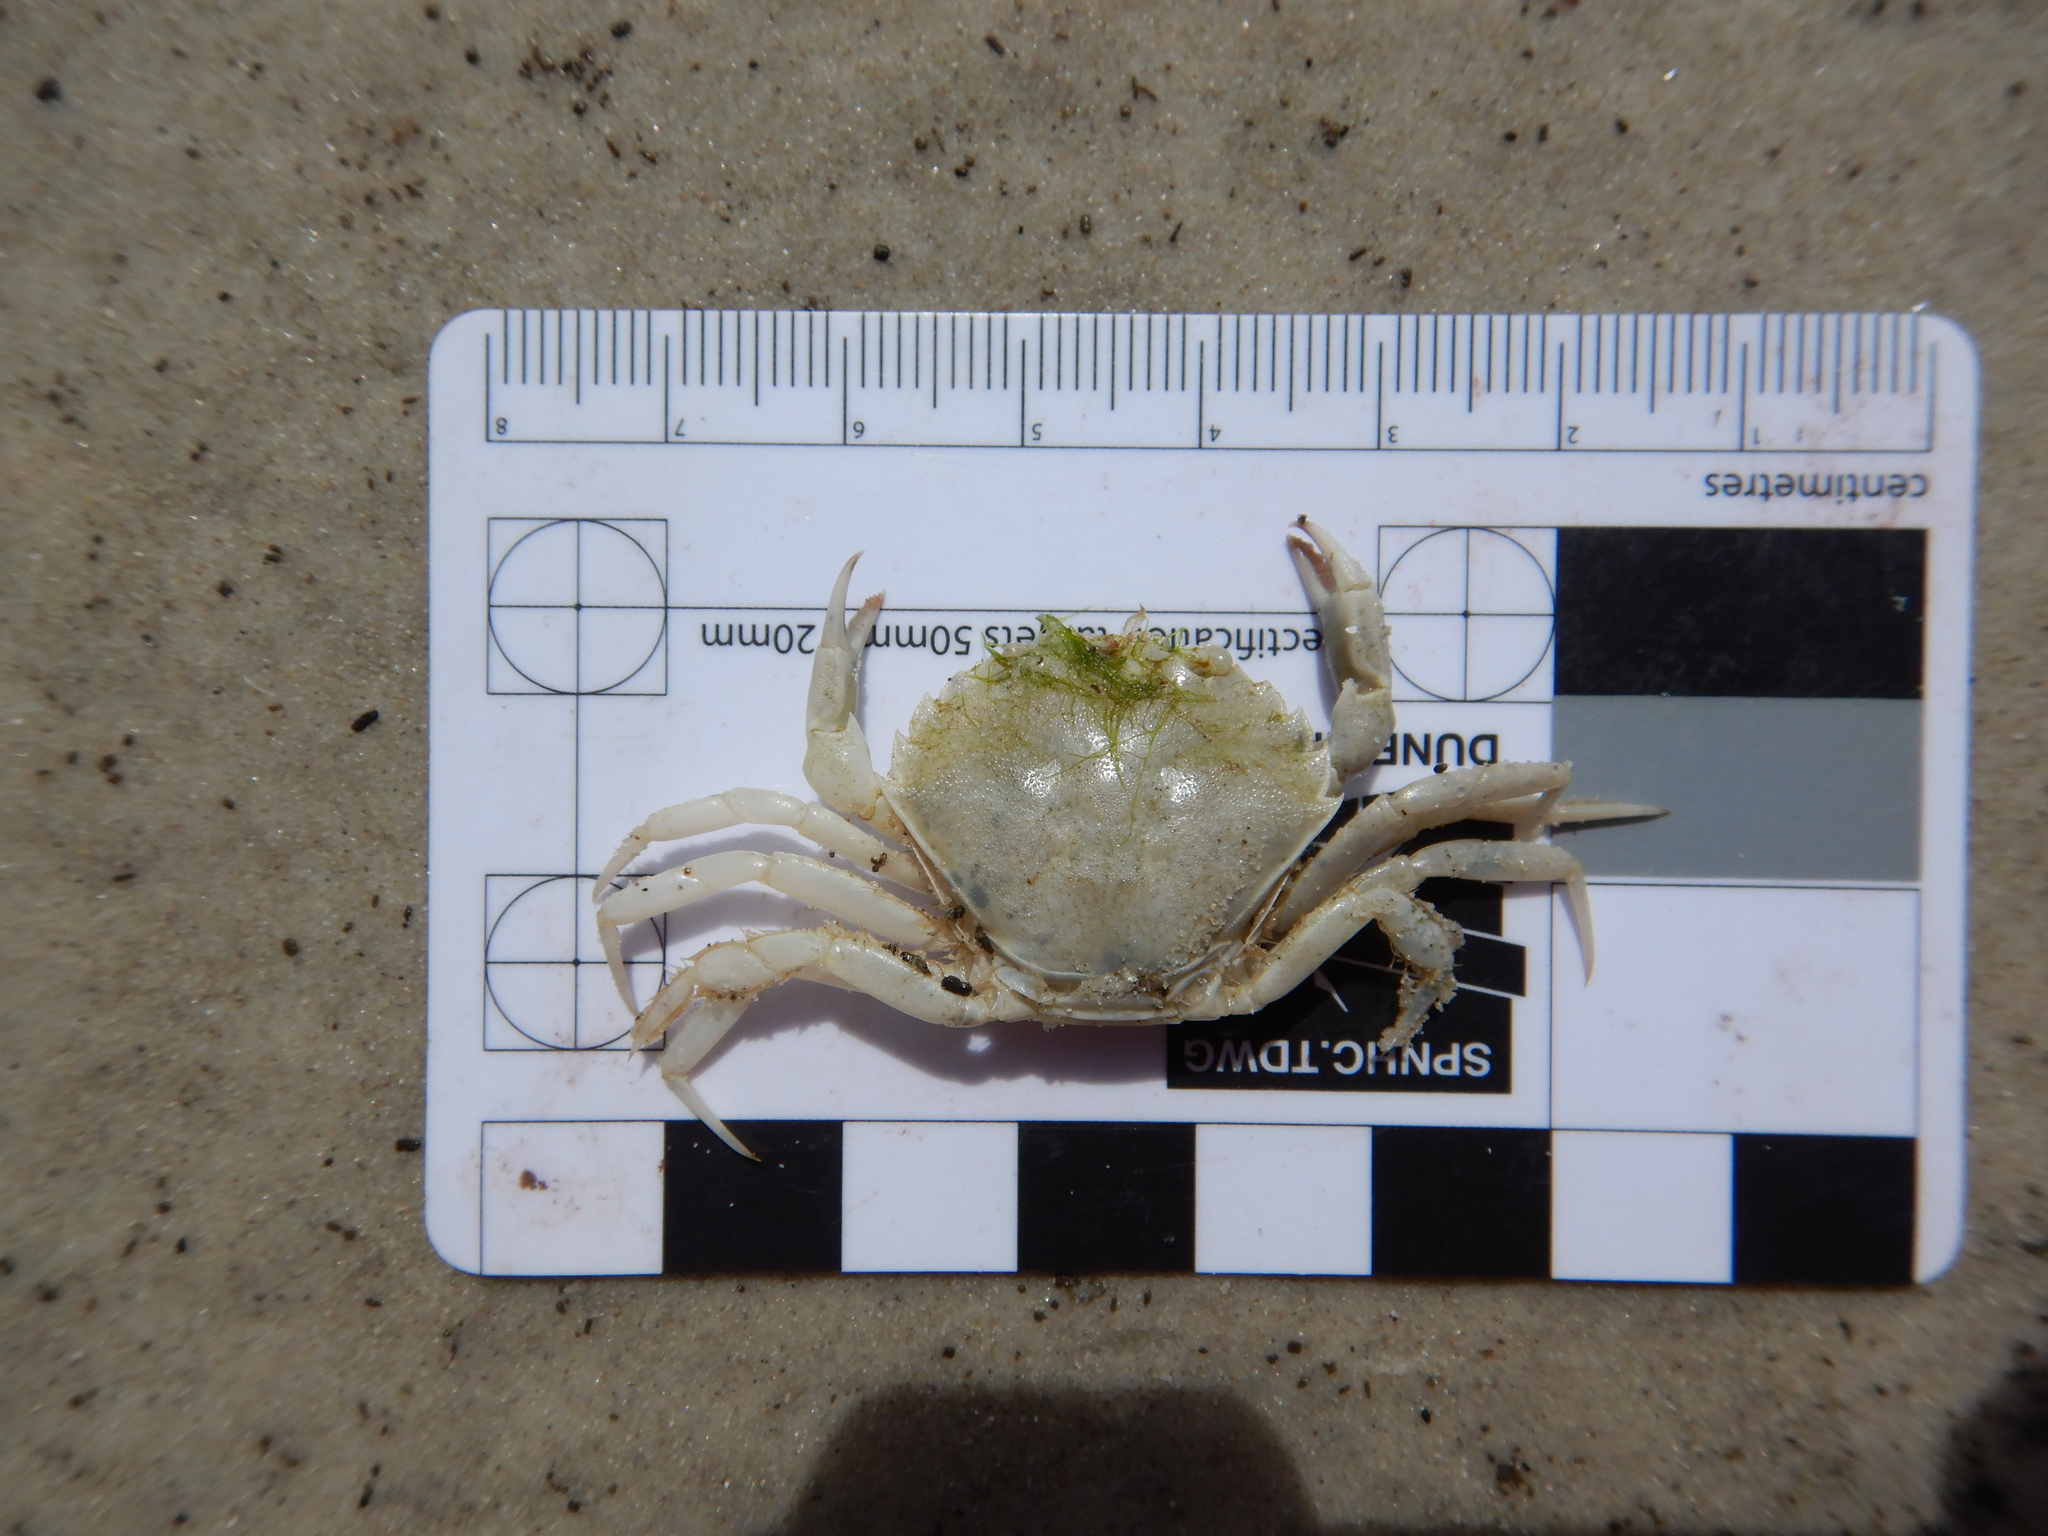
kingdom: Animalia
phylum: Arthropoda
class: Malacostraca
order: Decapoda
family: Carcinidae
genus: Carcinus
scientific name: Carcinus maenas
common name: European green crab
